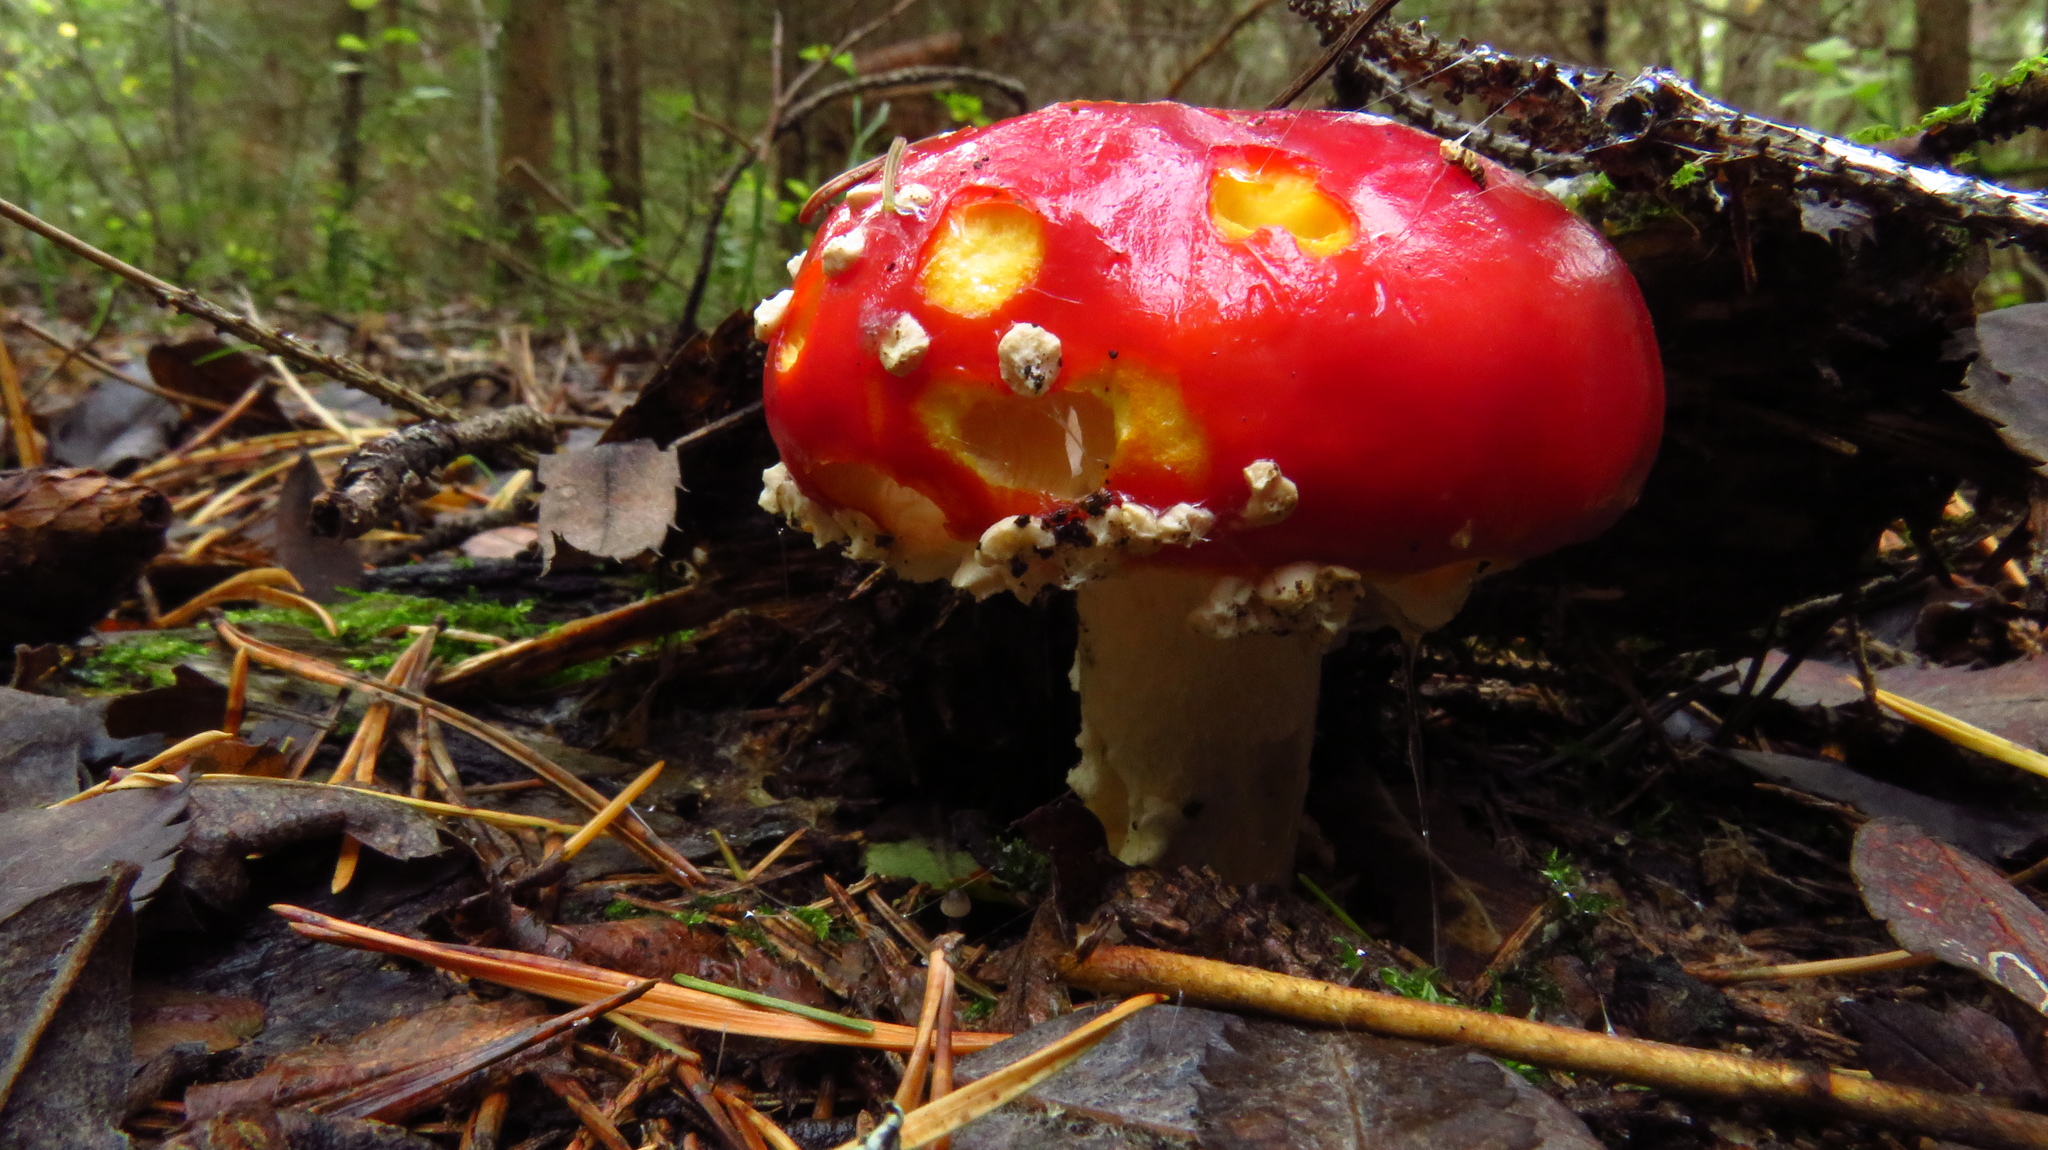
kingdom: Fungi
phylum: Basidiomycota
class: Agaricomycetes
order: Agaricales
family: Amanitaceae
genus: Amanita
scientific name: Amanita muscaria
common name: Fly agaric
